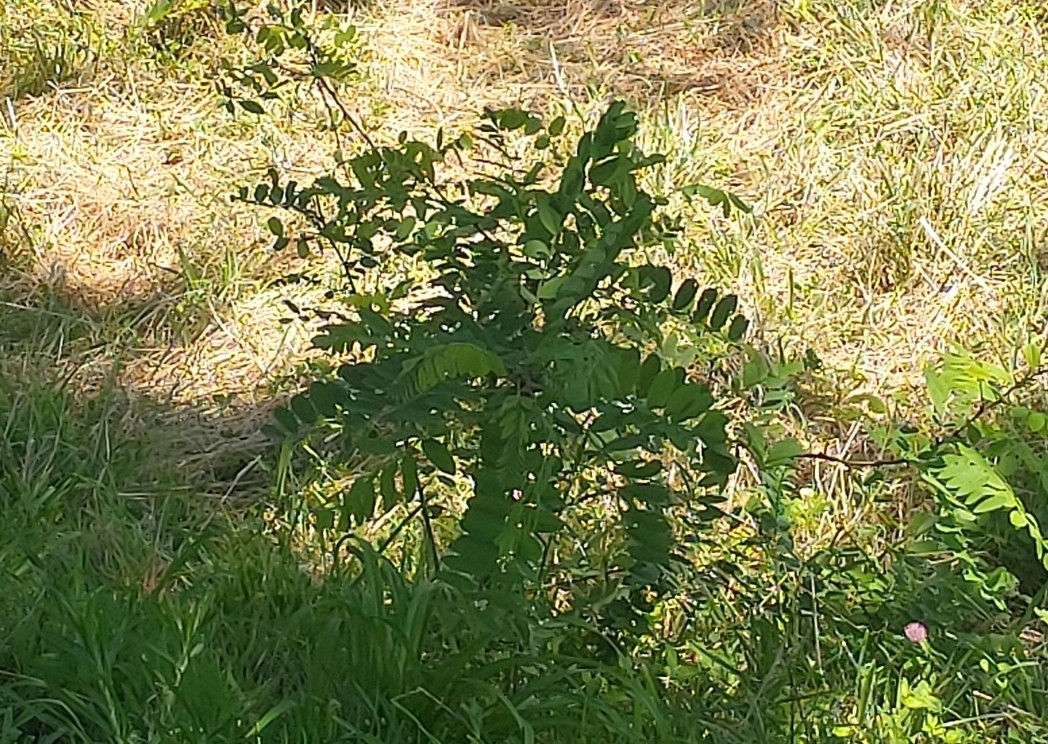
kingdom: Plantae
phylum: Tracheophyta
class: Magnoliopsida
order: Fabales
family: Fabaceae
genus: Robinia
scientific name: Robinia pseudoacacia
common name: Black locust
